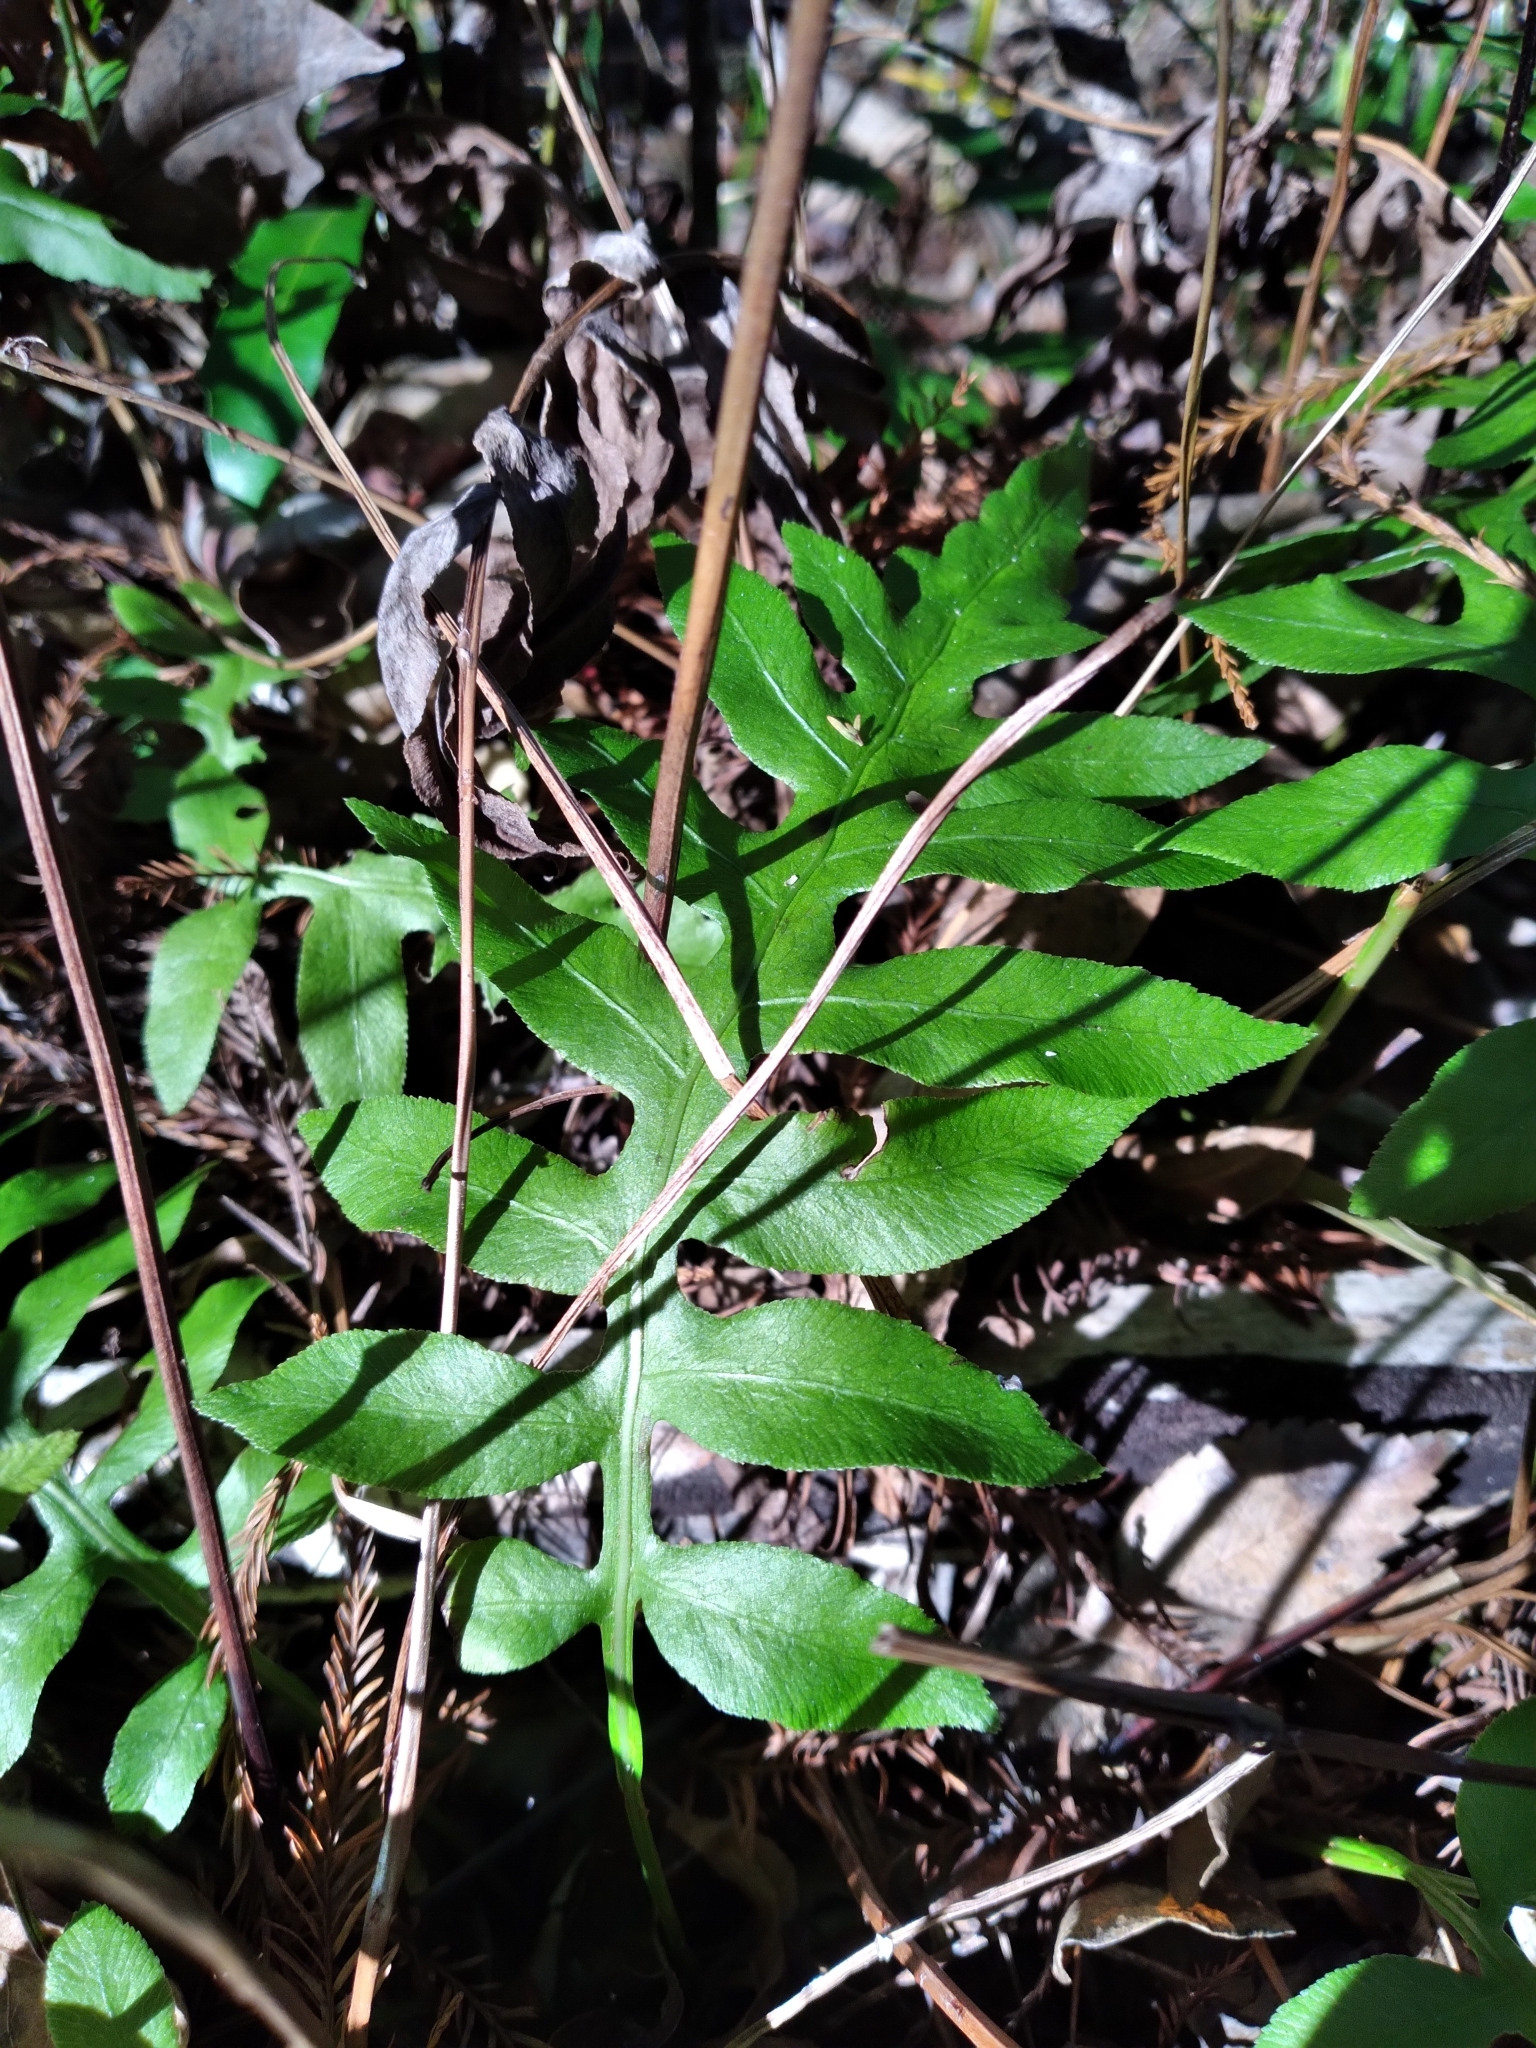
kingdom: Plantae
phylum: Tracheophyta
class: Polypodiopsida
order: Polypodiales
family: Blechnaceae
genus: Lorinseria
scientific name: Lorinseria areolata
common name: Dwarf chain fern
